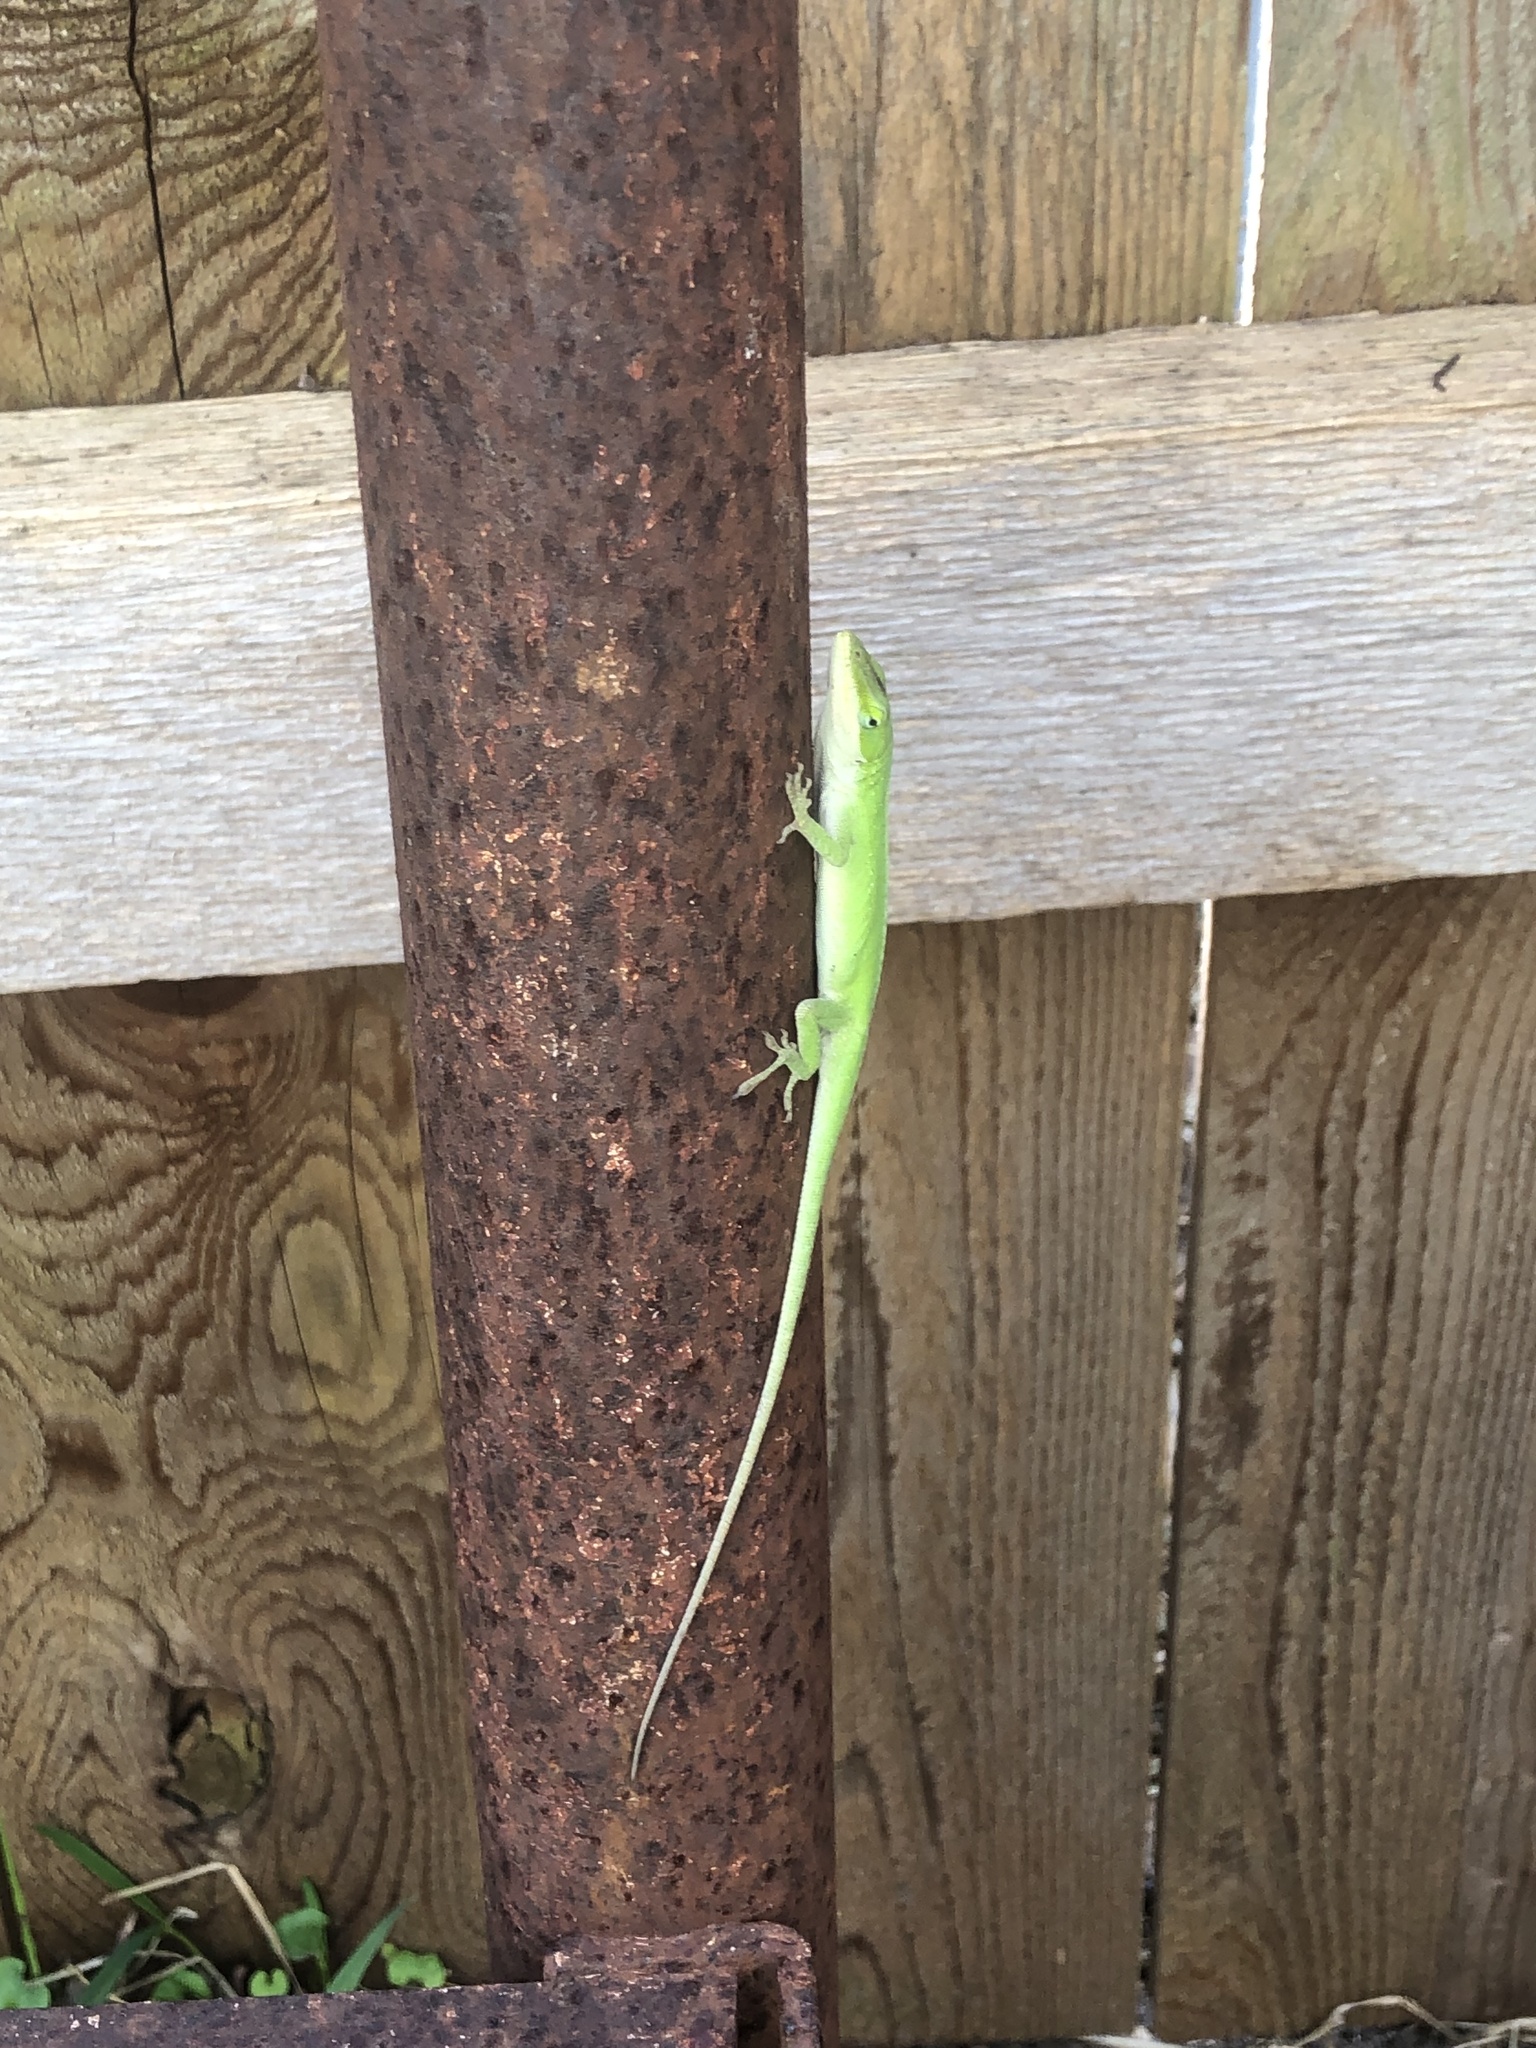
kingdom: Animalia
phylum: Chordata
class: Squamata
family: Dactyloidae
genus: Anolis
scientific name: Anolis carolinensis
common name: Green anole
